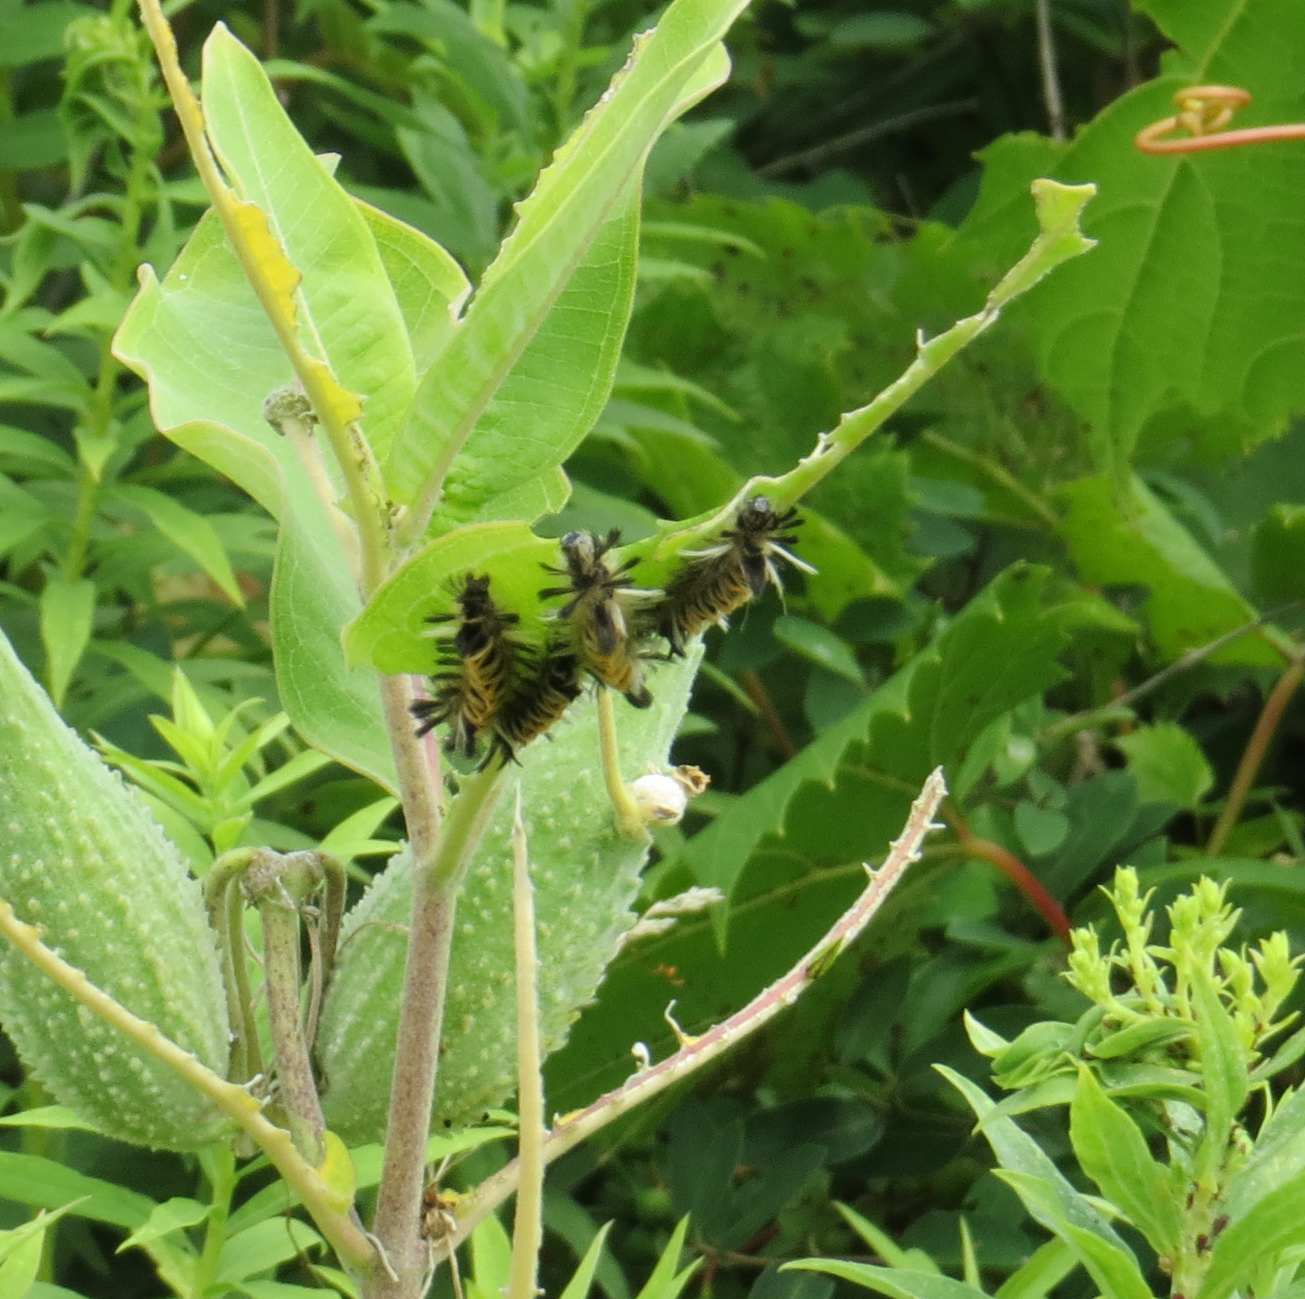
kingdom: Animalia
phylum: Arthropoda
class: Insecta
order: Lepidoptera
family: Erebidae
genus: Euchaetes
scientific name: Euchaetes egle
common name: Milkweed tussock moth
